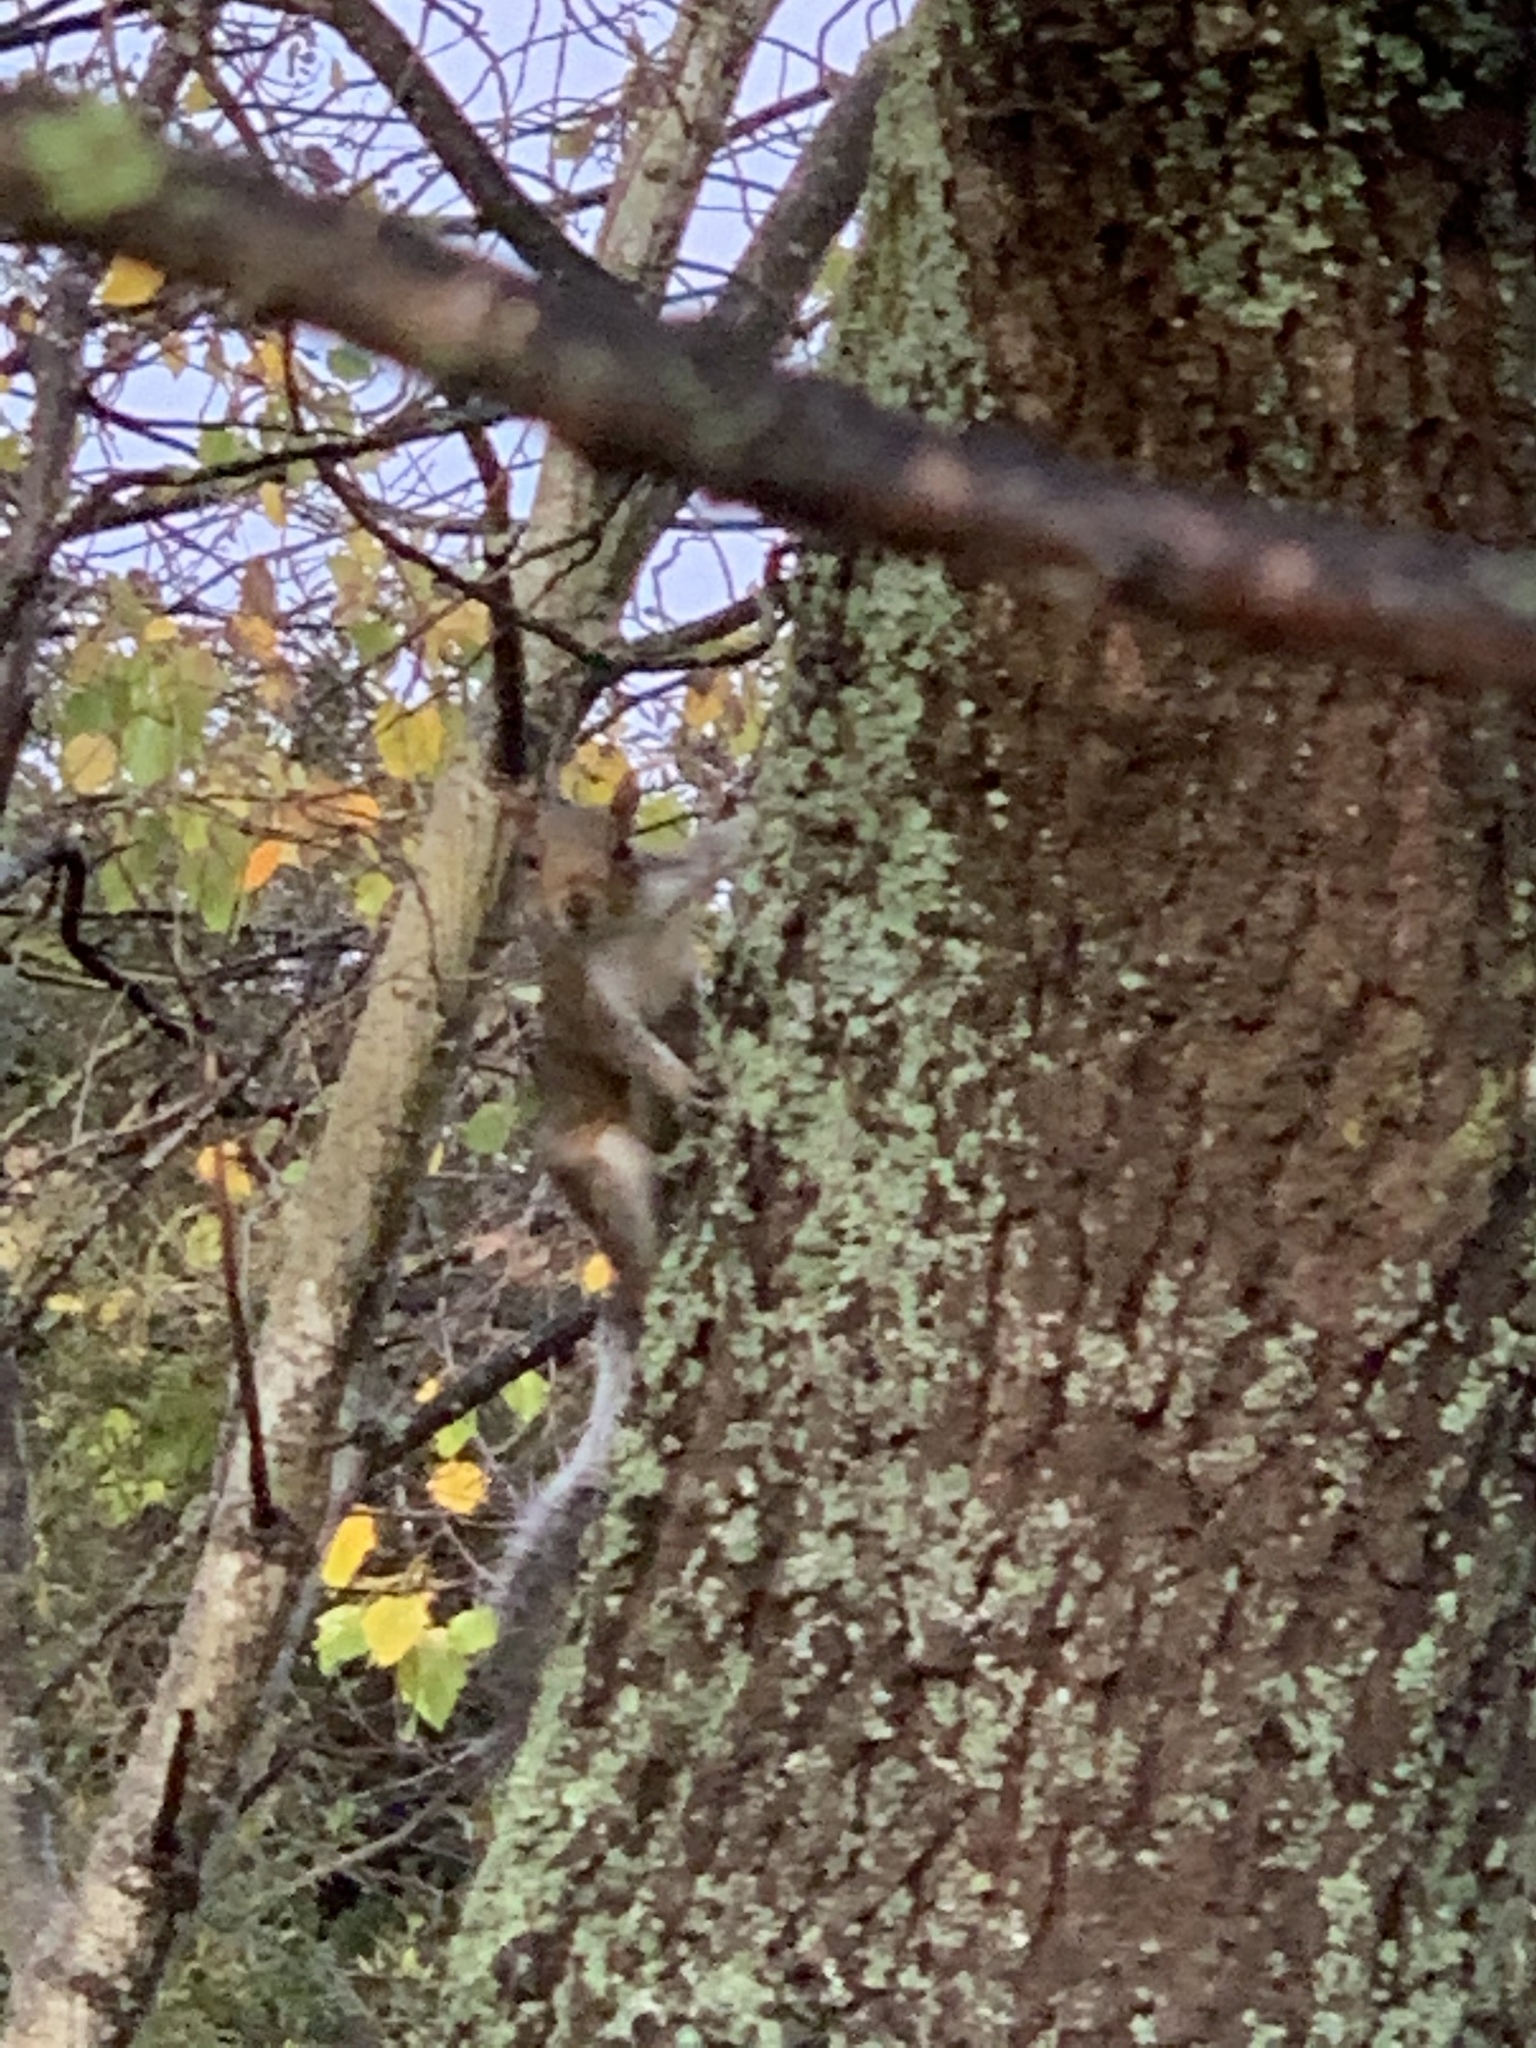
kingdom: Animalia
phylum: Chordata
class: Mammalia
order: Rodentia
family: Sciuridae
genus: Sciurus
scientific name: Sciurus carolinensis
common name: Eastern gray squirrel
